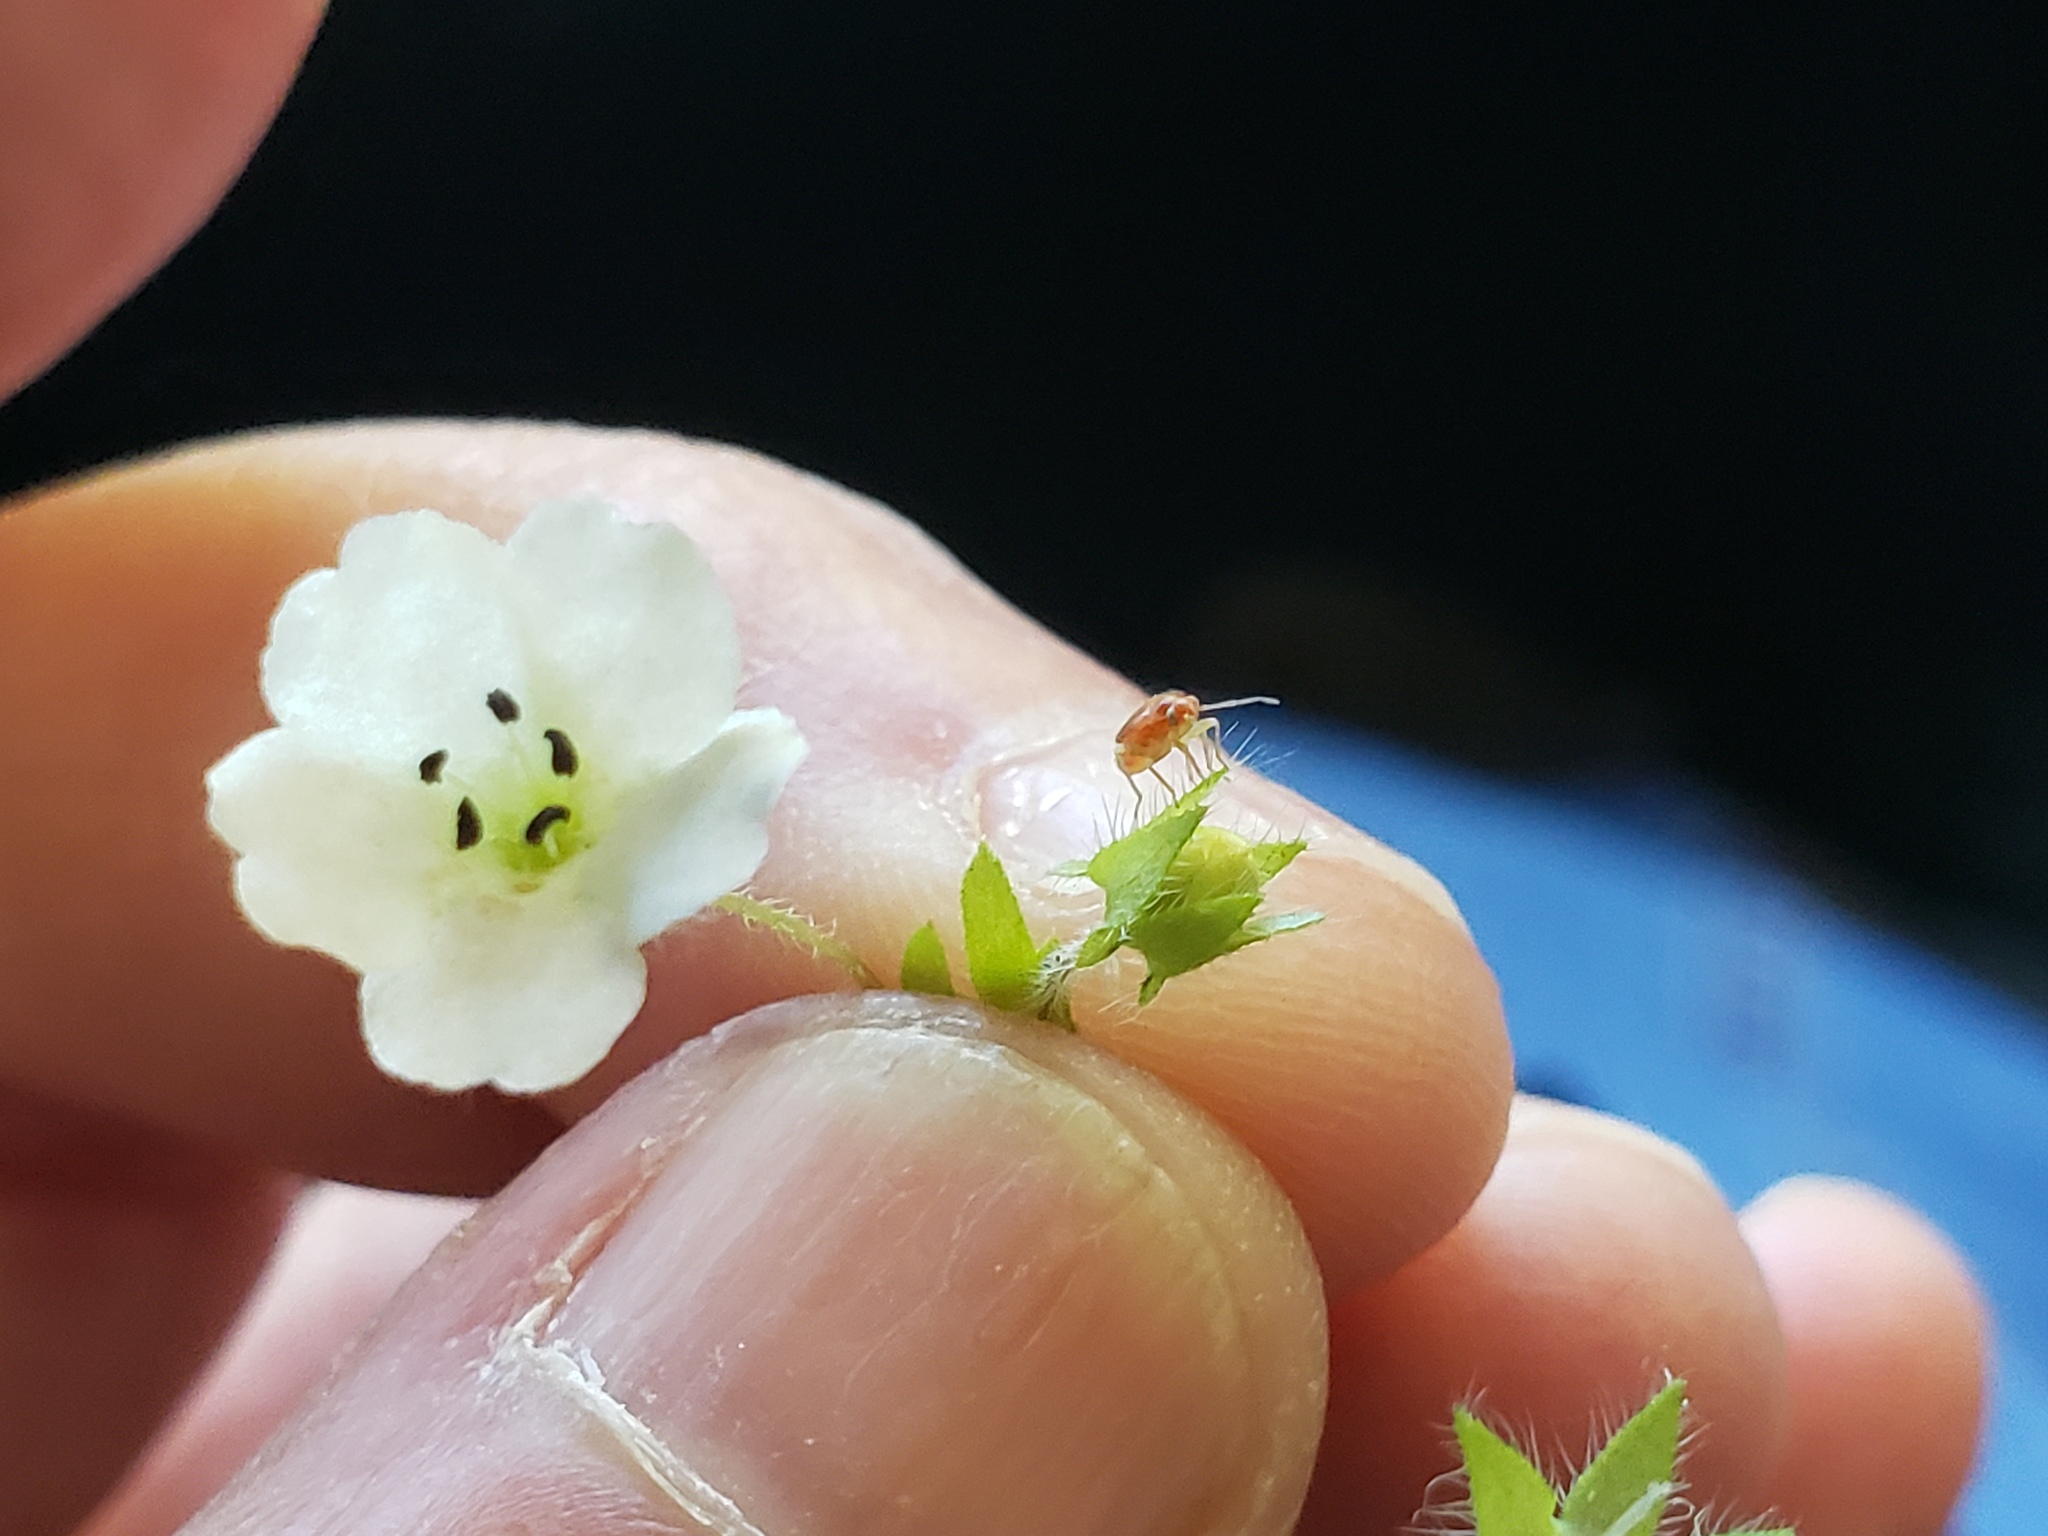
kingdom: Plantae
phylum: Tracheophyta
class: Magnoliopsida
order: Boraginales
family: Hydrophyllaceae
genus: Nemophila
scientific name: Nemophila heterophylla
